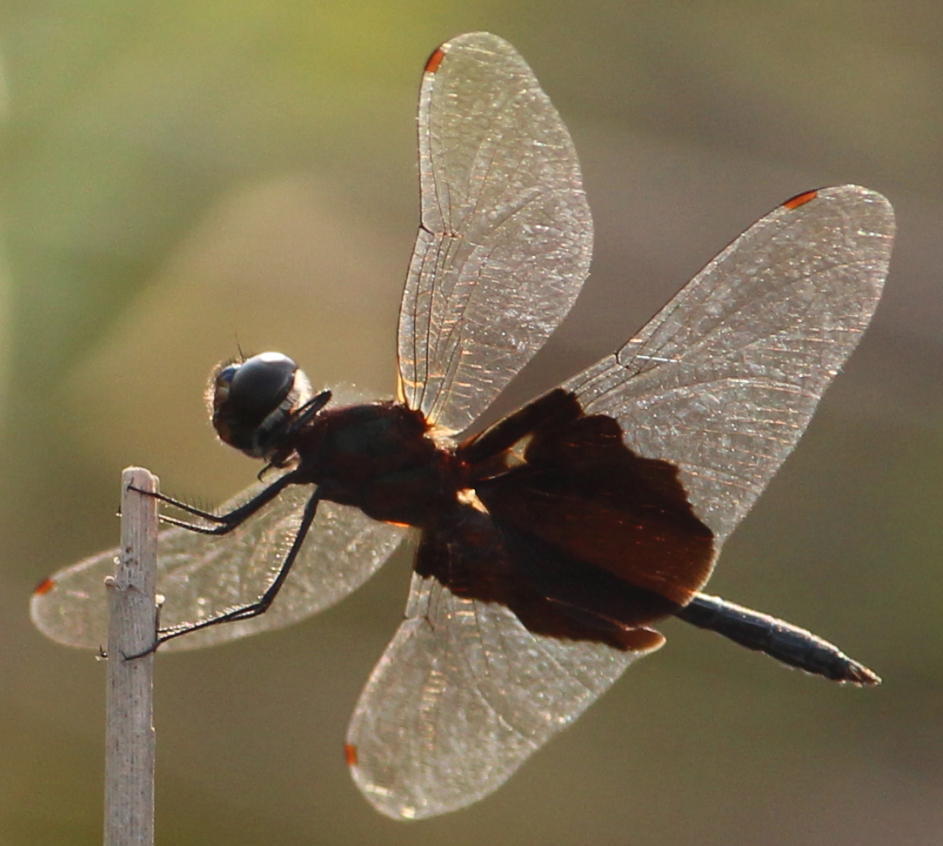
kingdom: Animalia
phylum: Arthropoda
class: Insecta
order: Odonata
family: Libellulidae
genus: Rhyothemis
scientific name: Rhyothemis semihyalina
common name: Phantom flutterer
